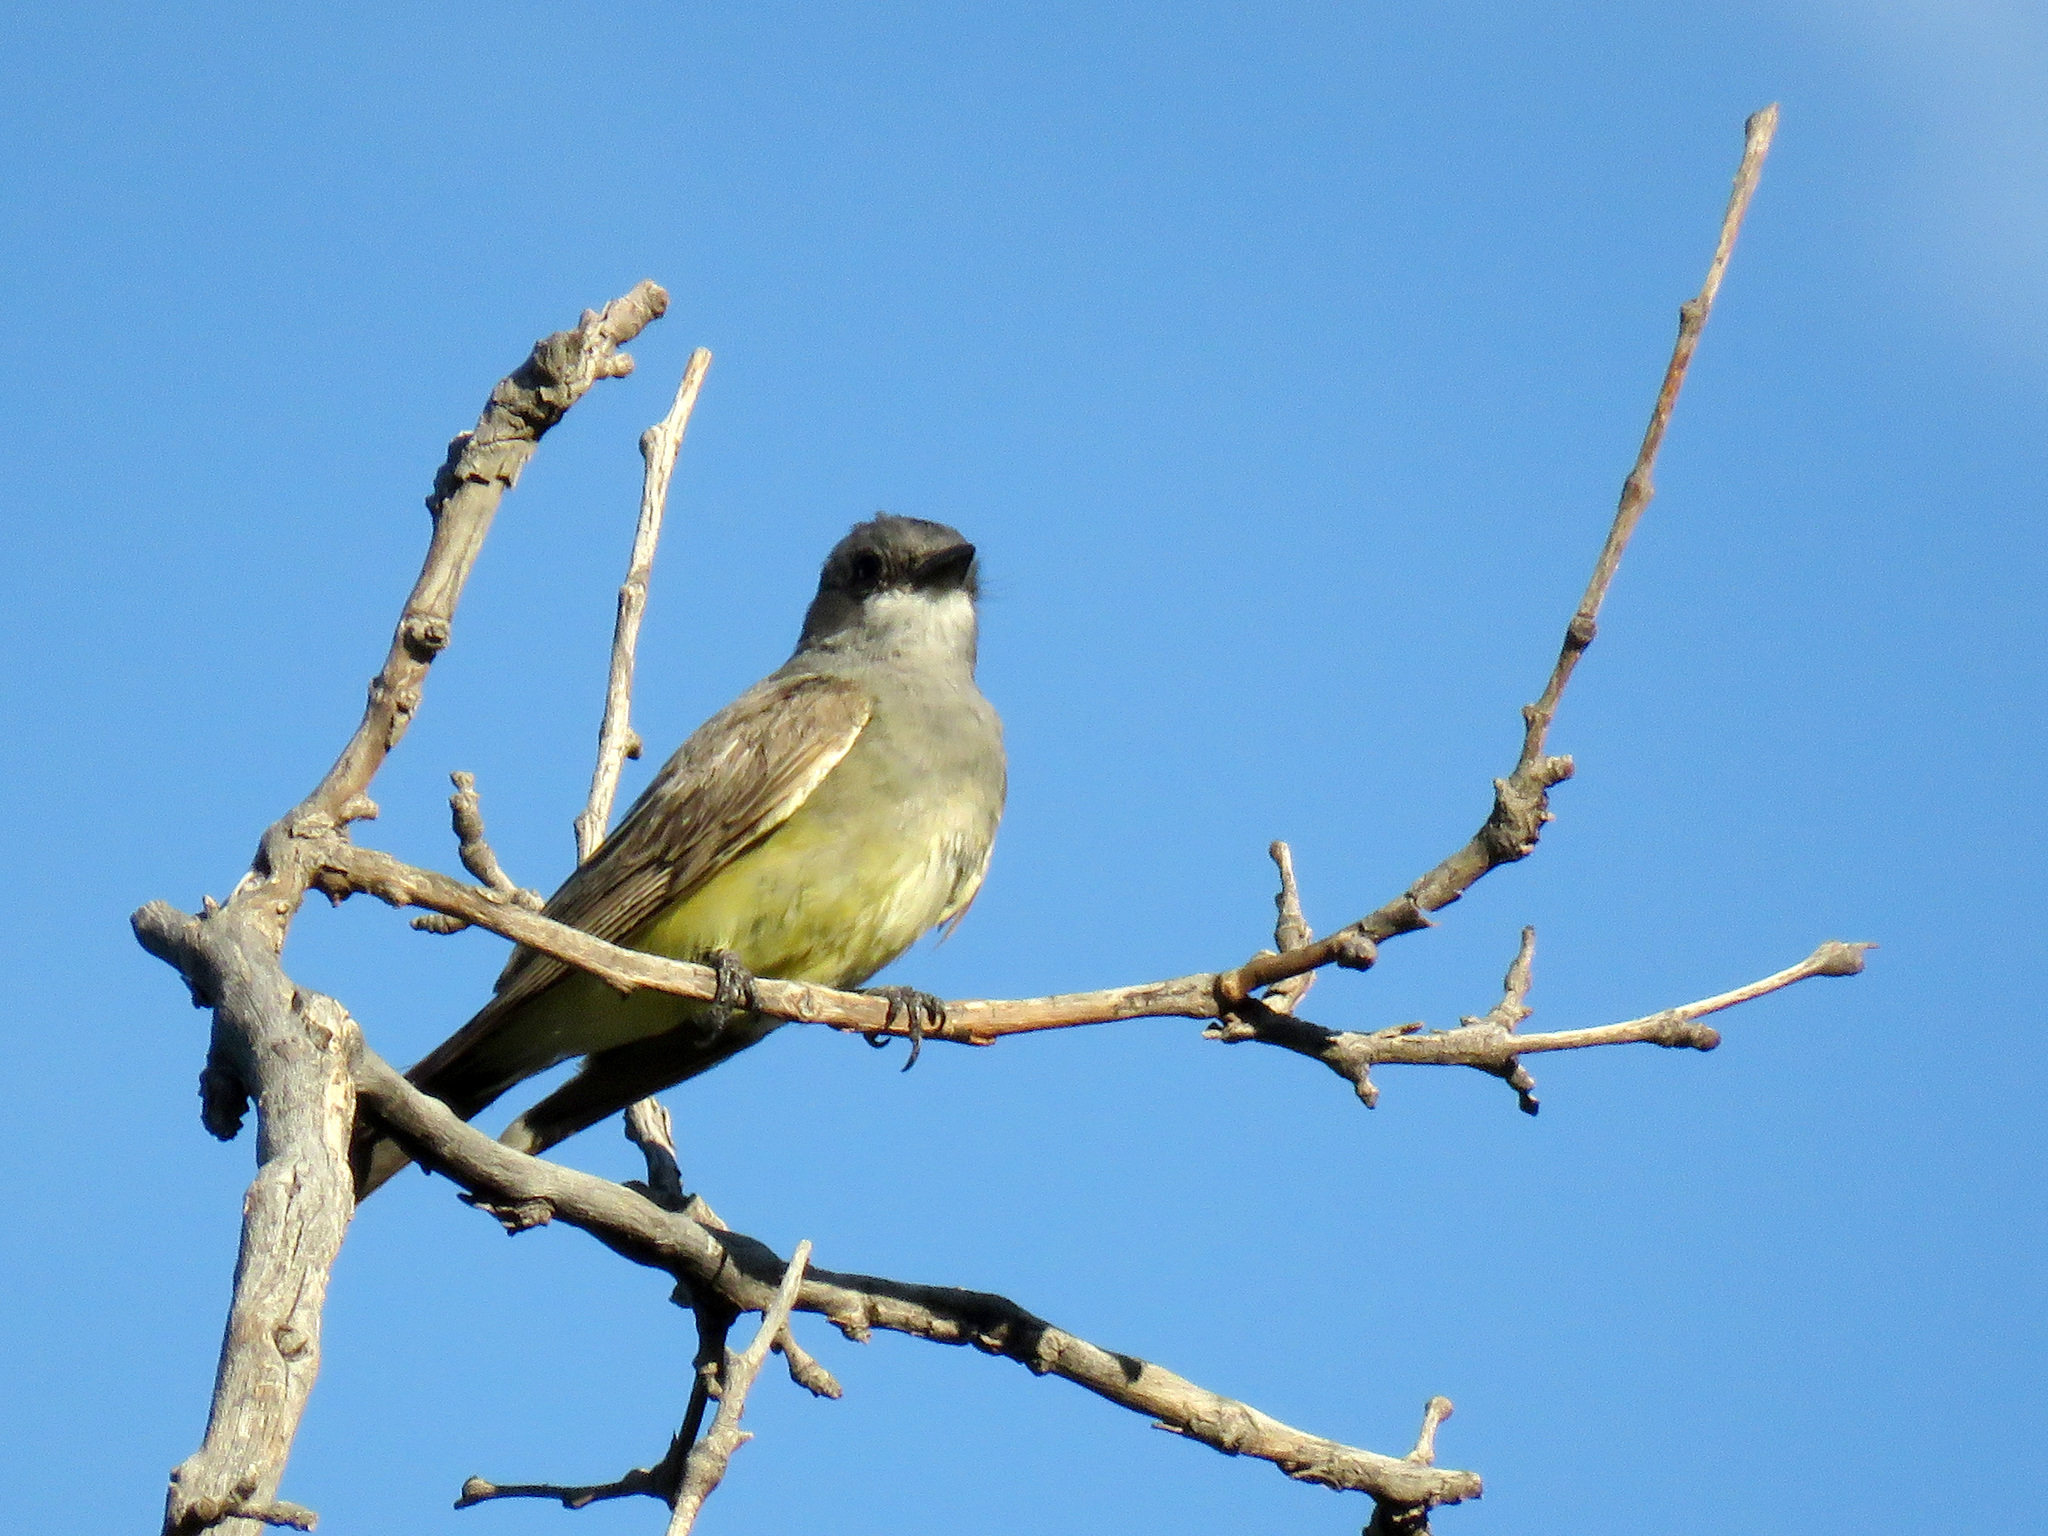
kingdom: Animalia
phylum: Chordata
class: Aves
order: Passeriformes
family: Tyrannidae
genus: Tyrannus
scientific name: Tyrannus vociferans
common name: Cassin's kingbird
